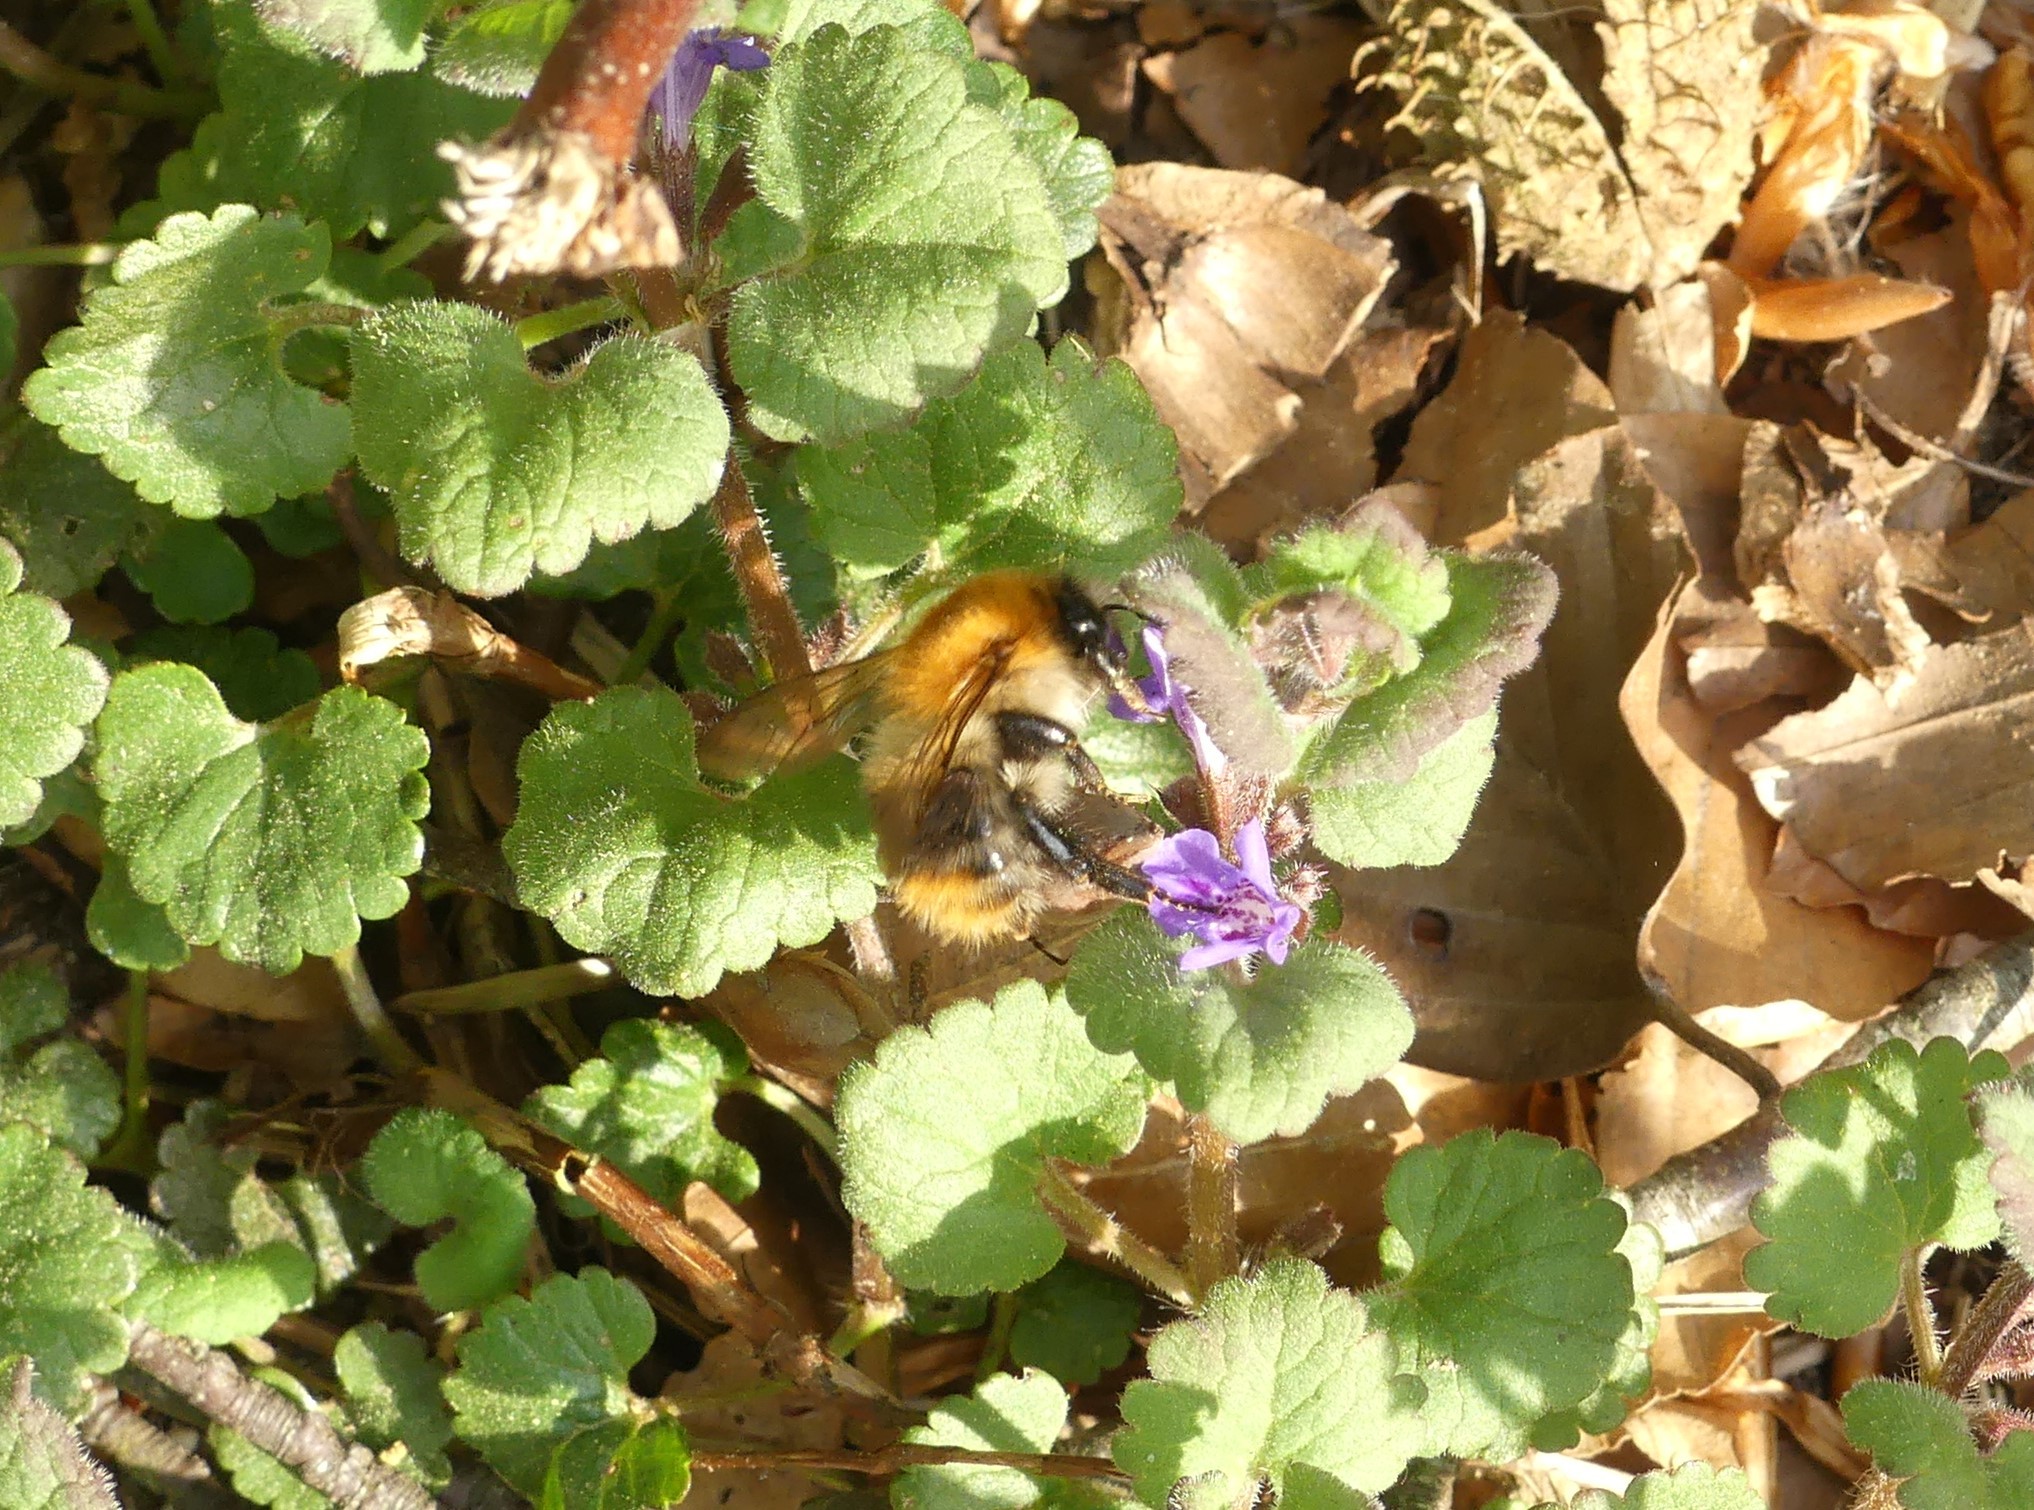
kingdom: Animalia
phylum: Arthropoda
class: Insecta
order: Hymenoptera
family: Apidae
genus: Bombus
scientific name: Bombus pascuorum
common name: Common carder bee
